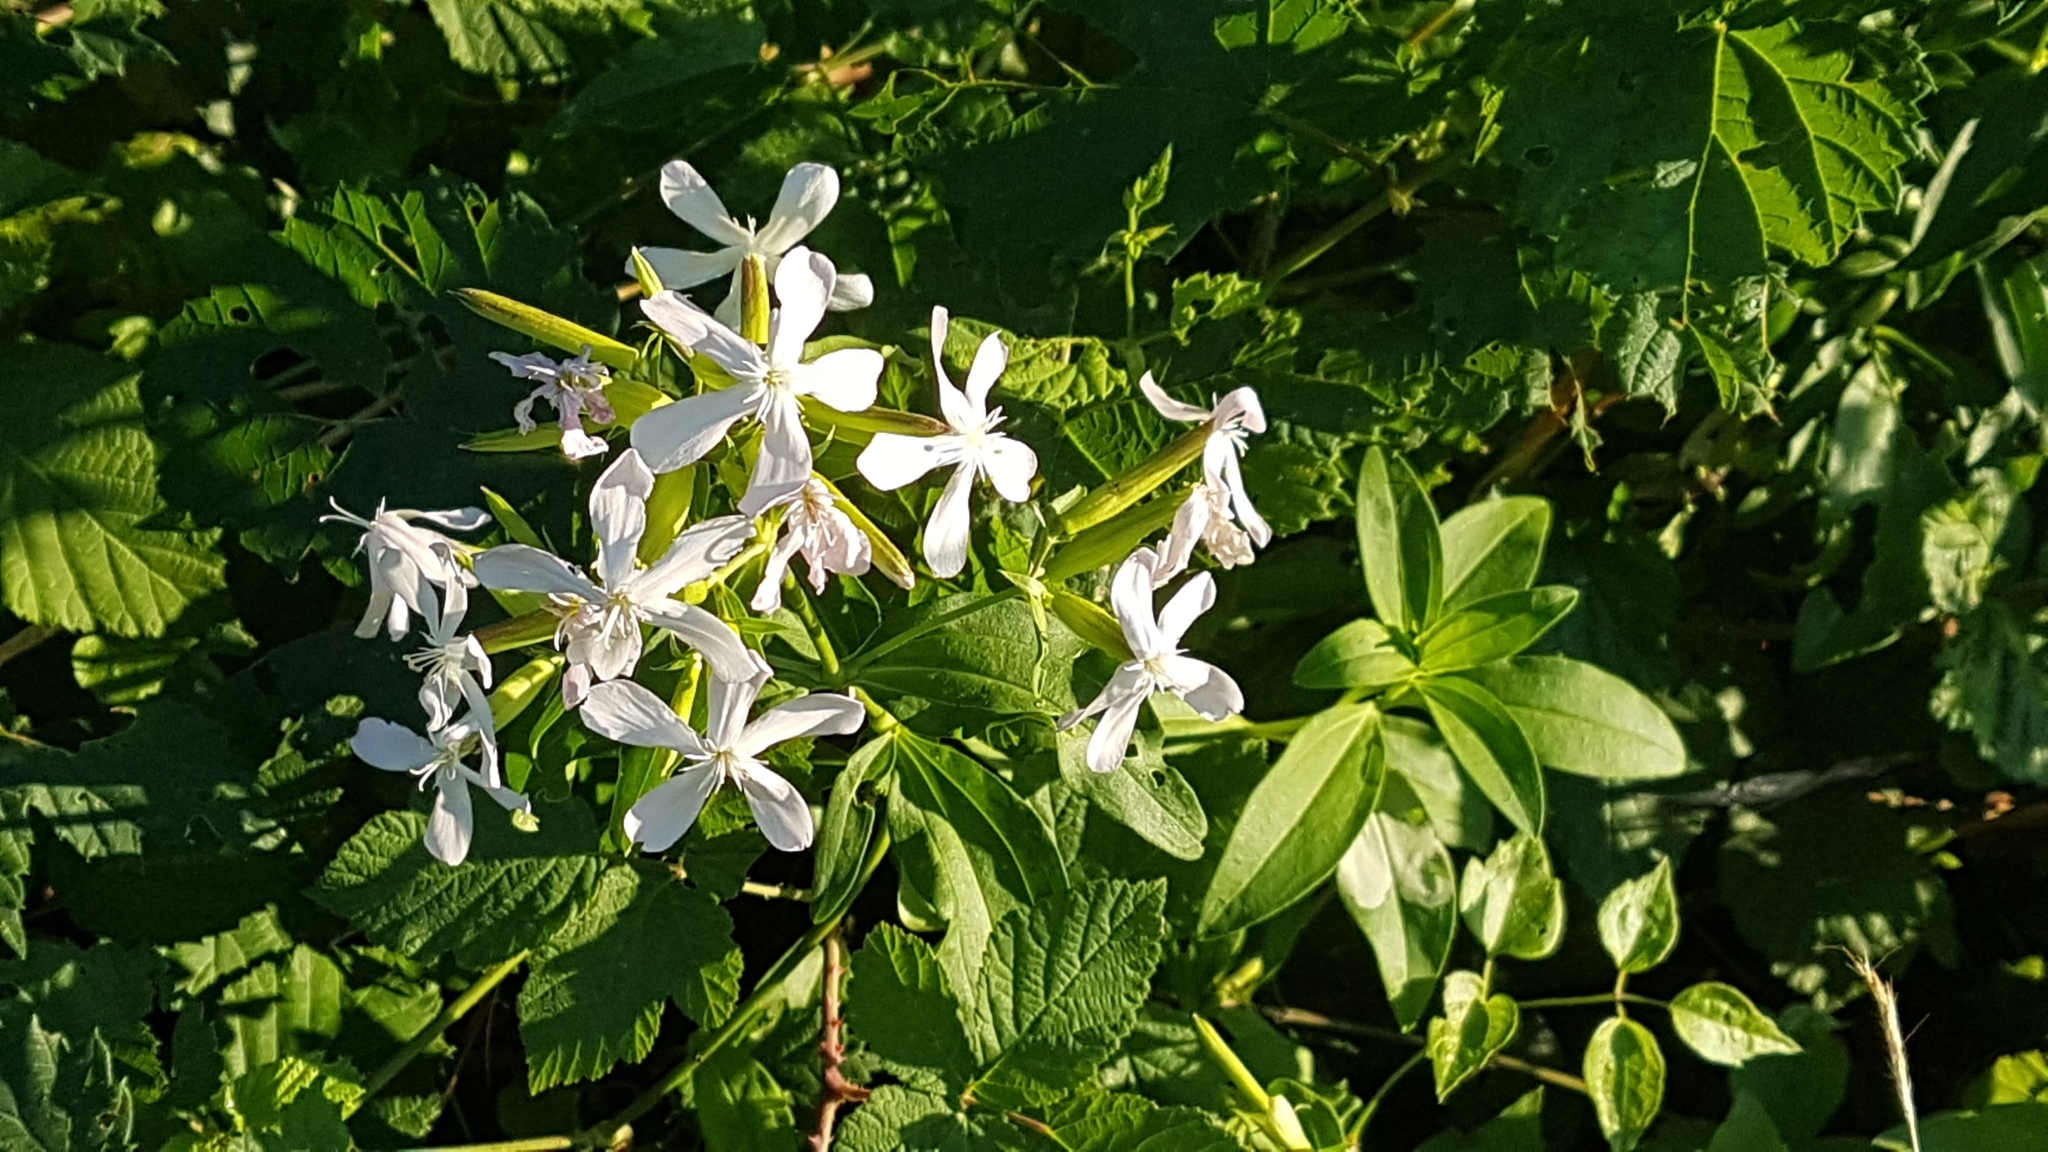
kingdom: Plantae
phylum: Tracheophyta
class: Magnoliopsida
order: Caryophyllales
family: Caryophyllaceae
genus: Saponaria
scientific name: Saponaria officinalis
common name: Soapwort
